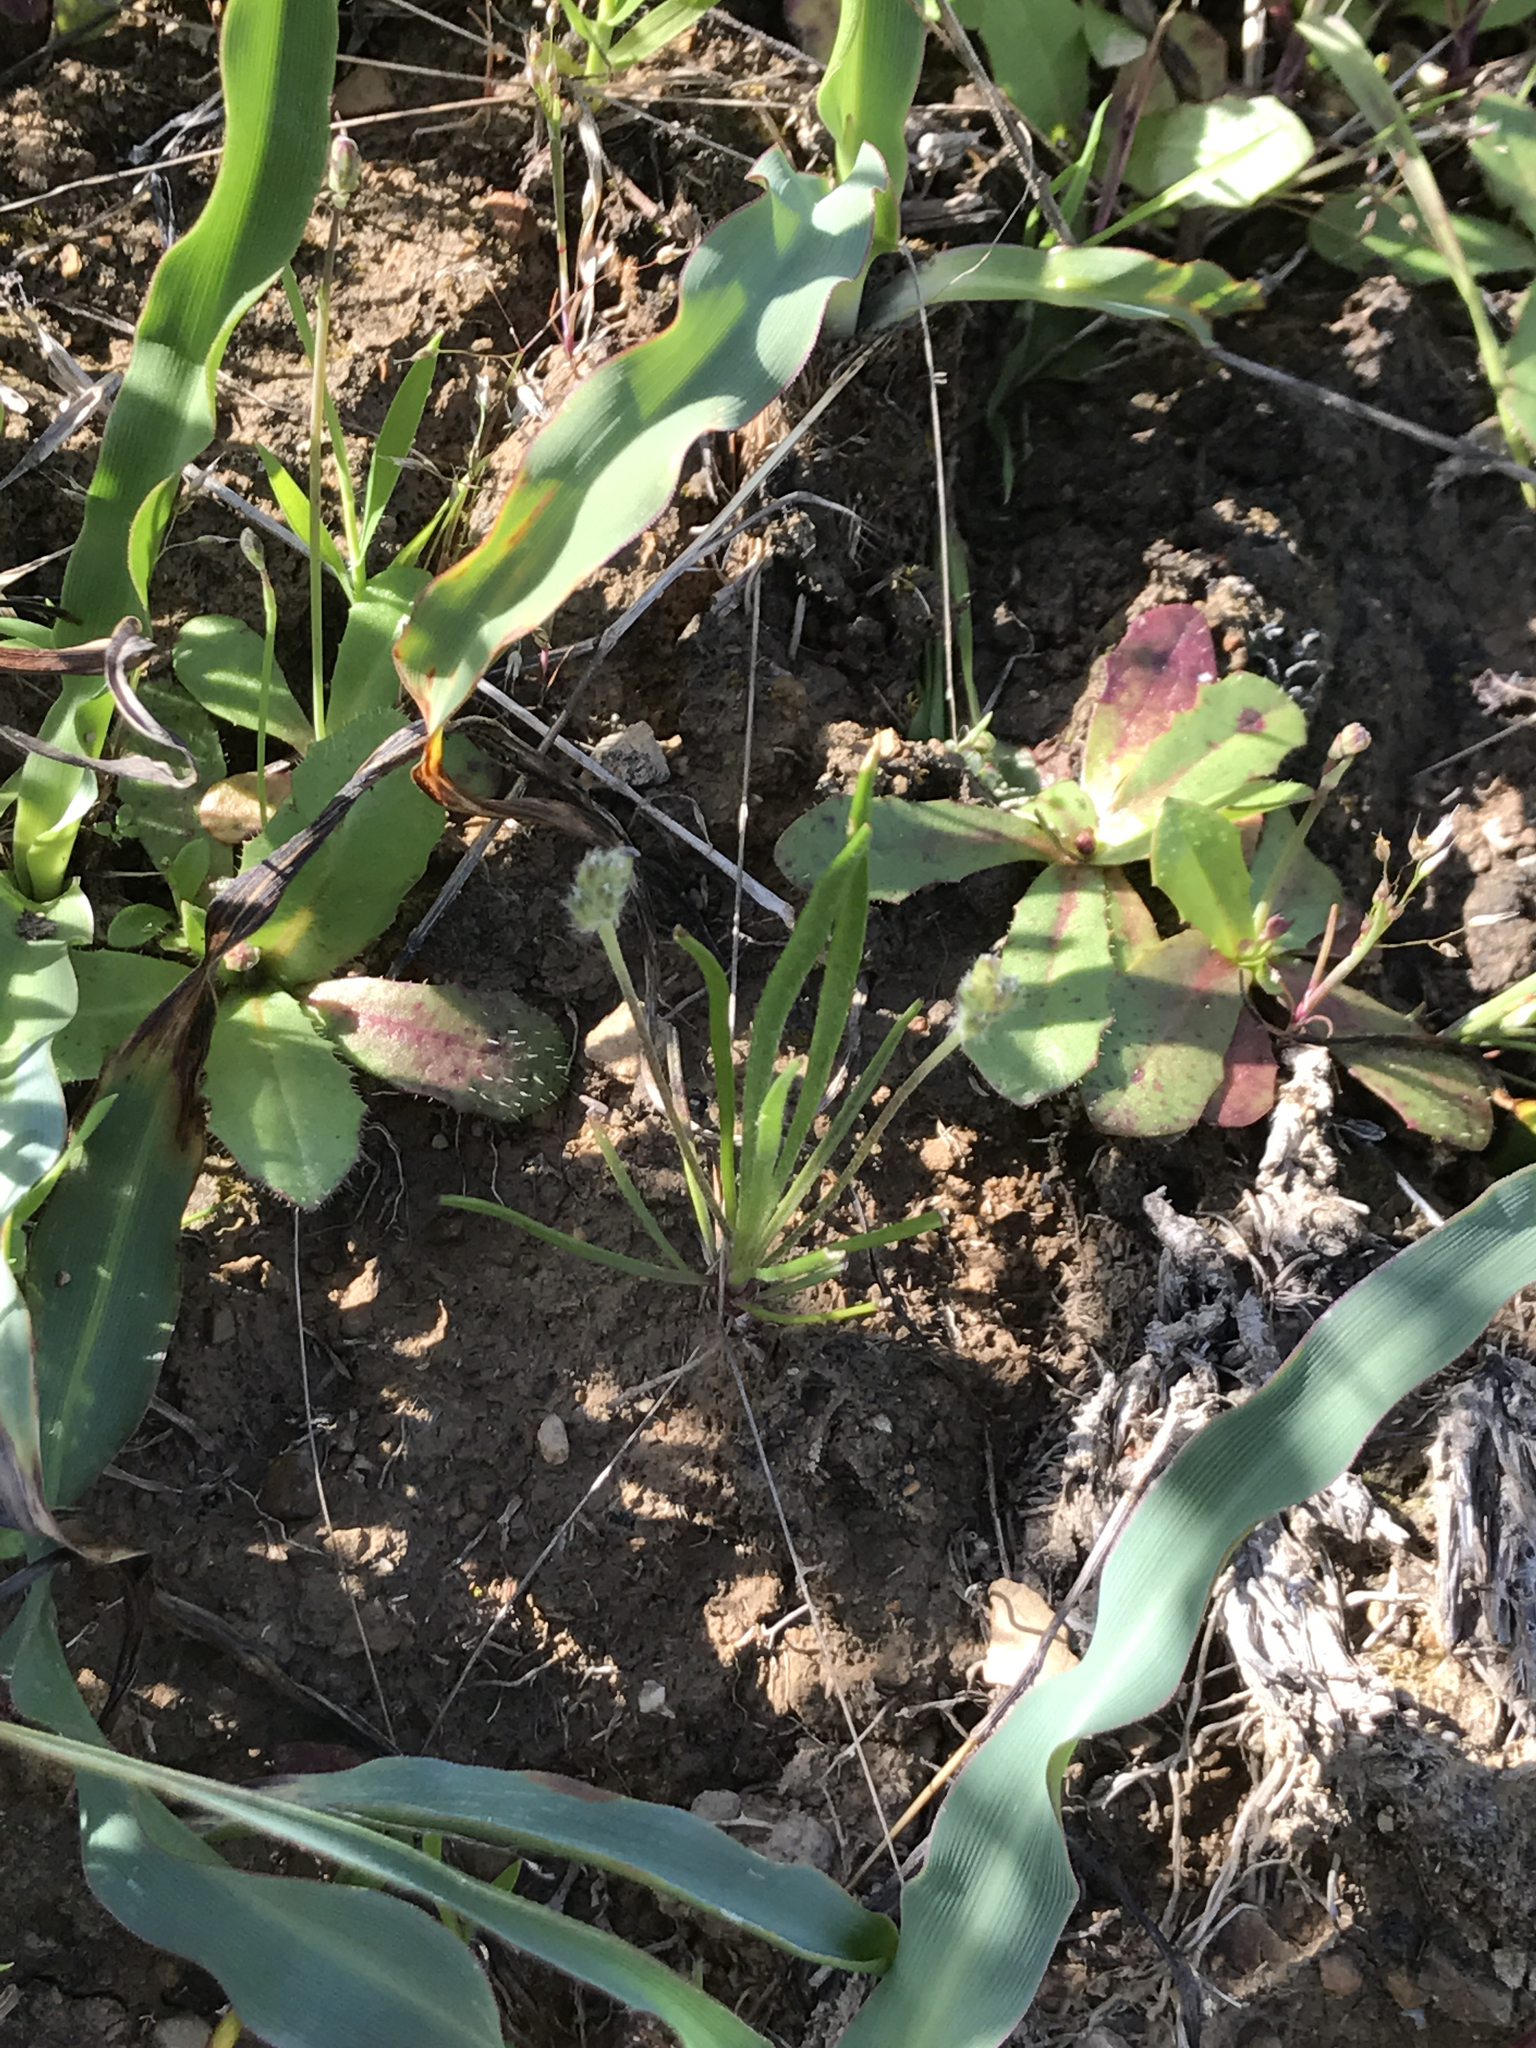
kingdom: Plantae
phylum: Tracheophyta
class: Magnoliopsida
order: Lamiales
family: Plantaginaceae
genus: Plantago
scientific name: Plantago erecta
